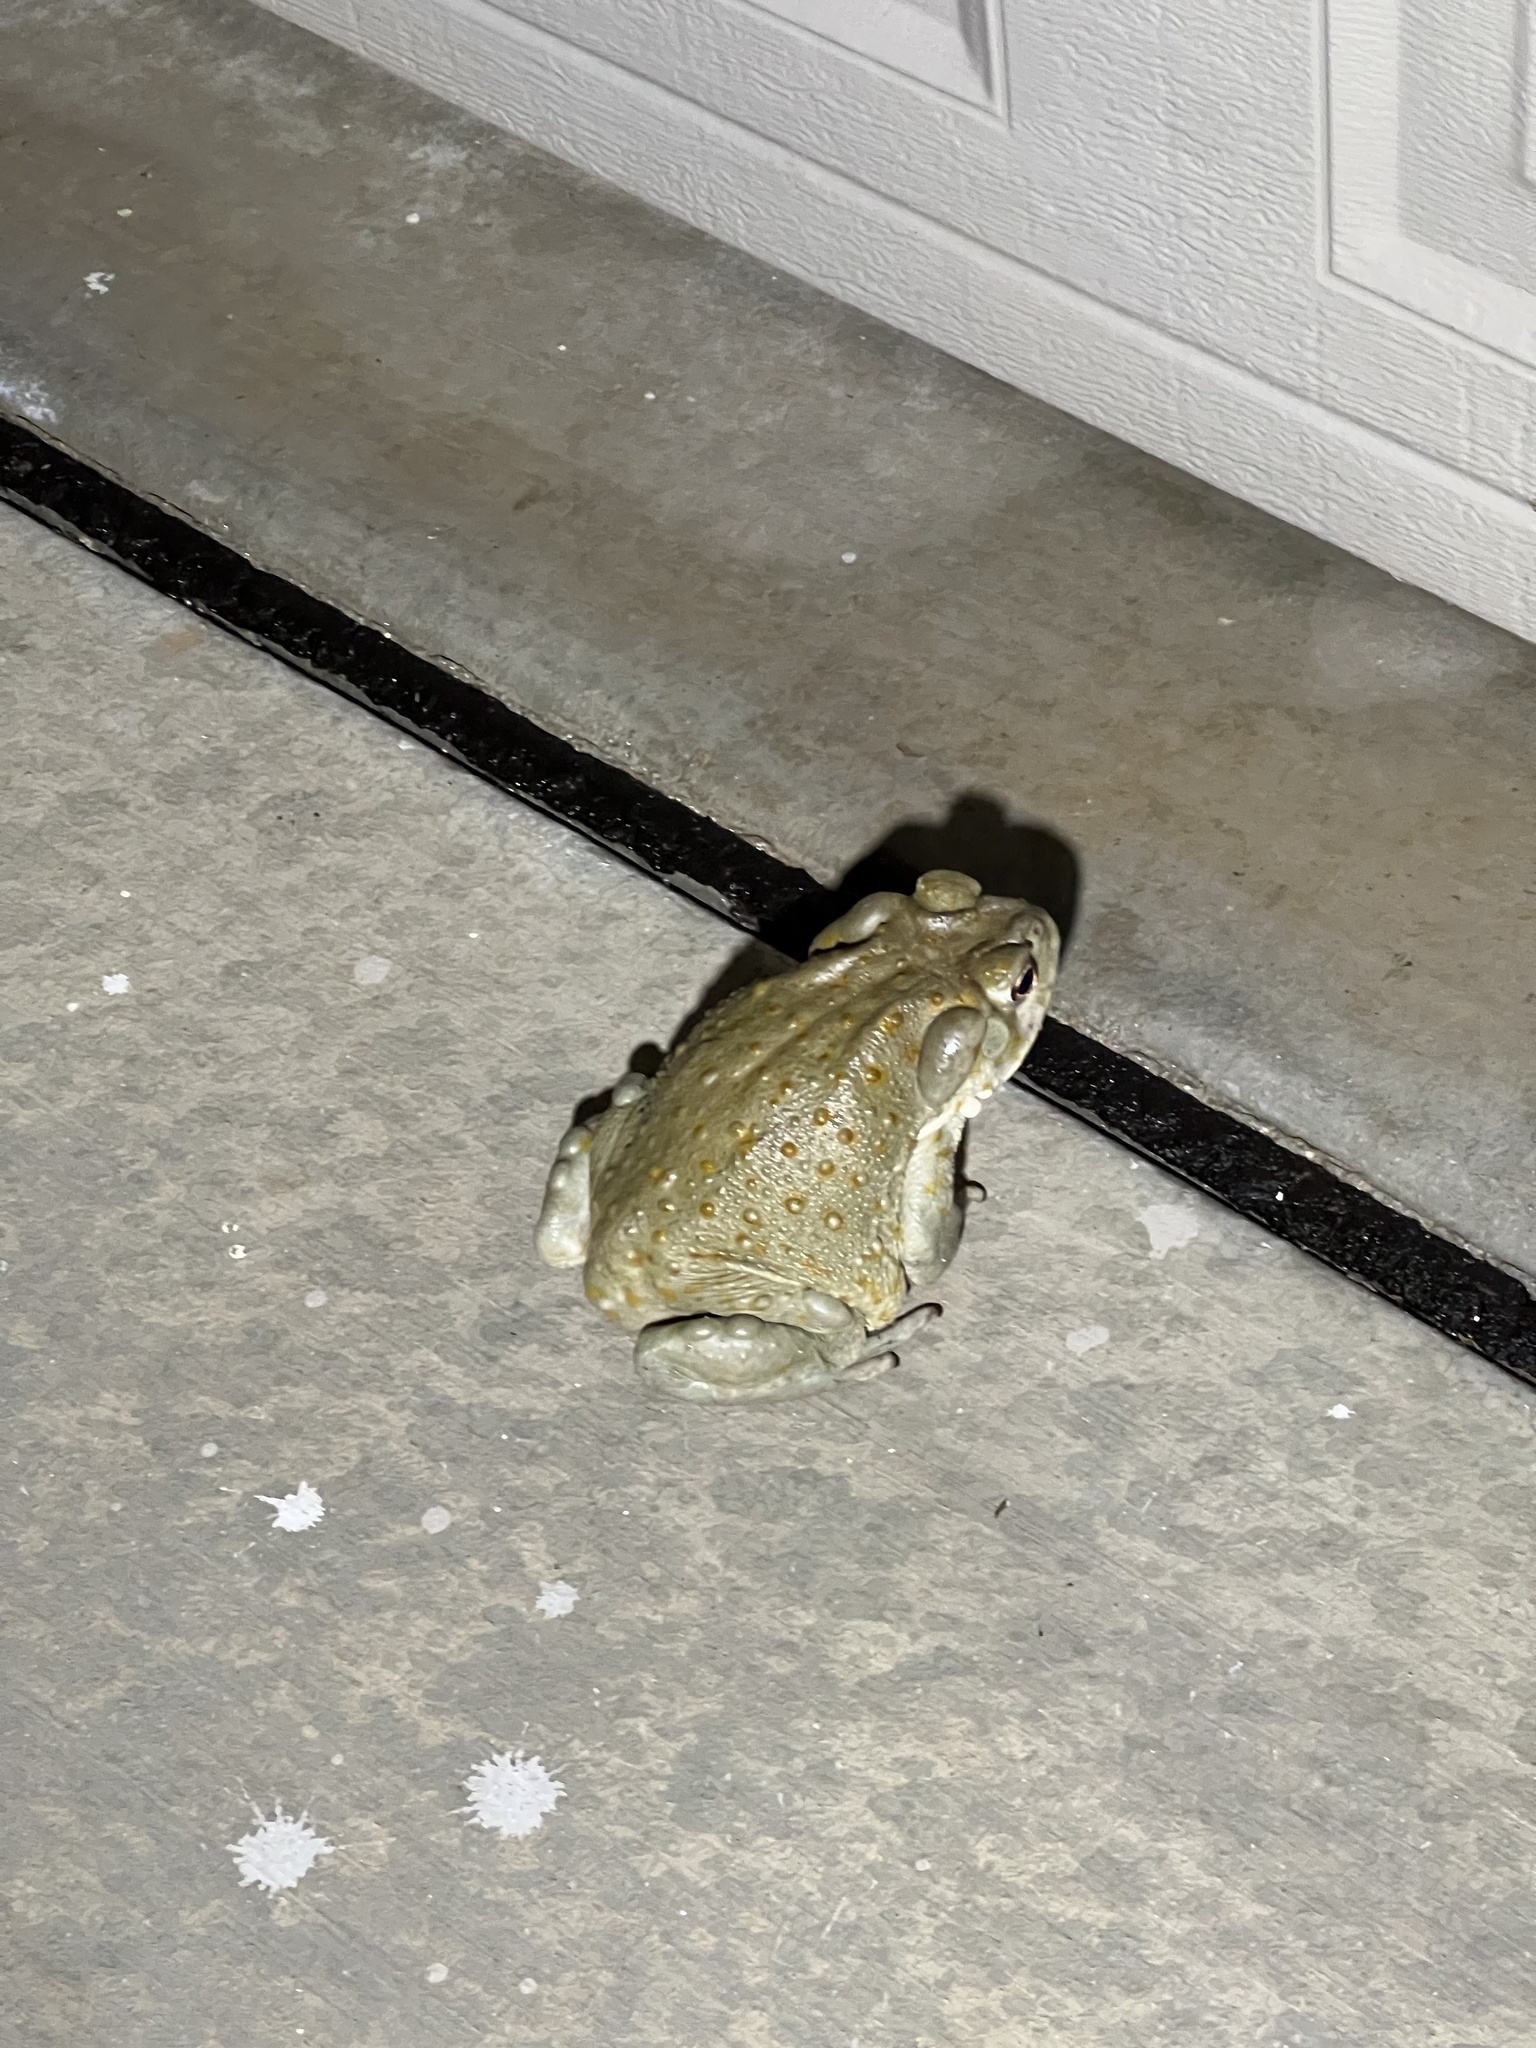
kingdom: Animalia
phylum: Chordata
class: Amphibia
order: Anura
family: Bufonidae
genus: Incilius
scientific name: Incilius alvarius
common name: Sonoran desert toad
